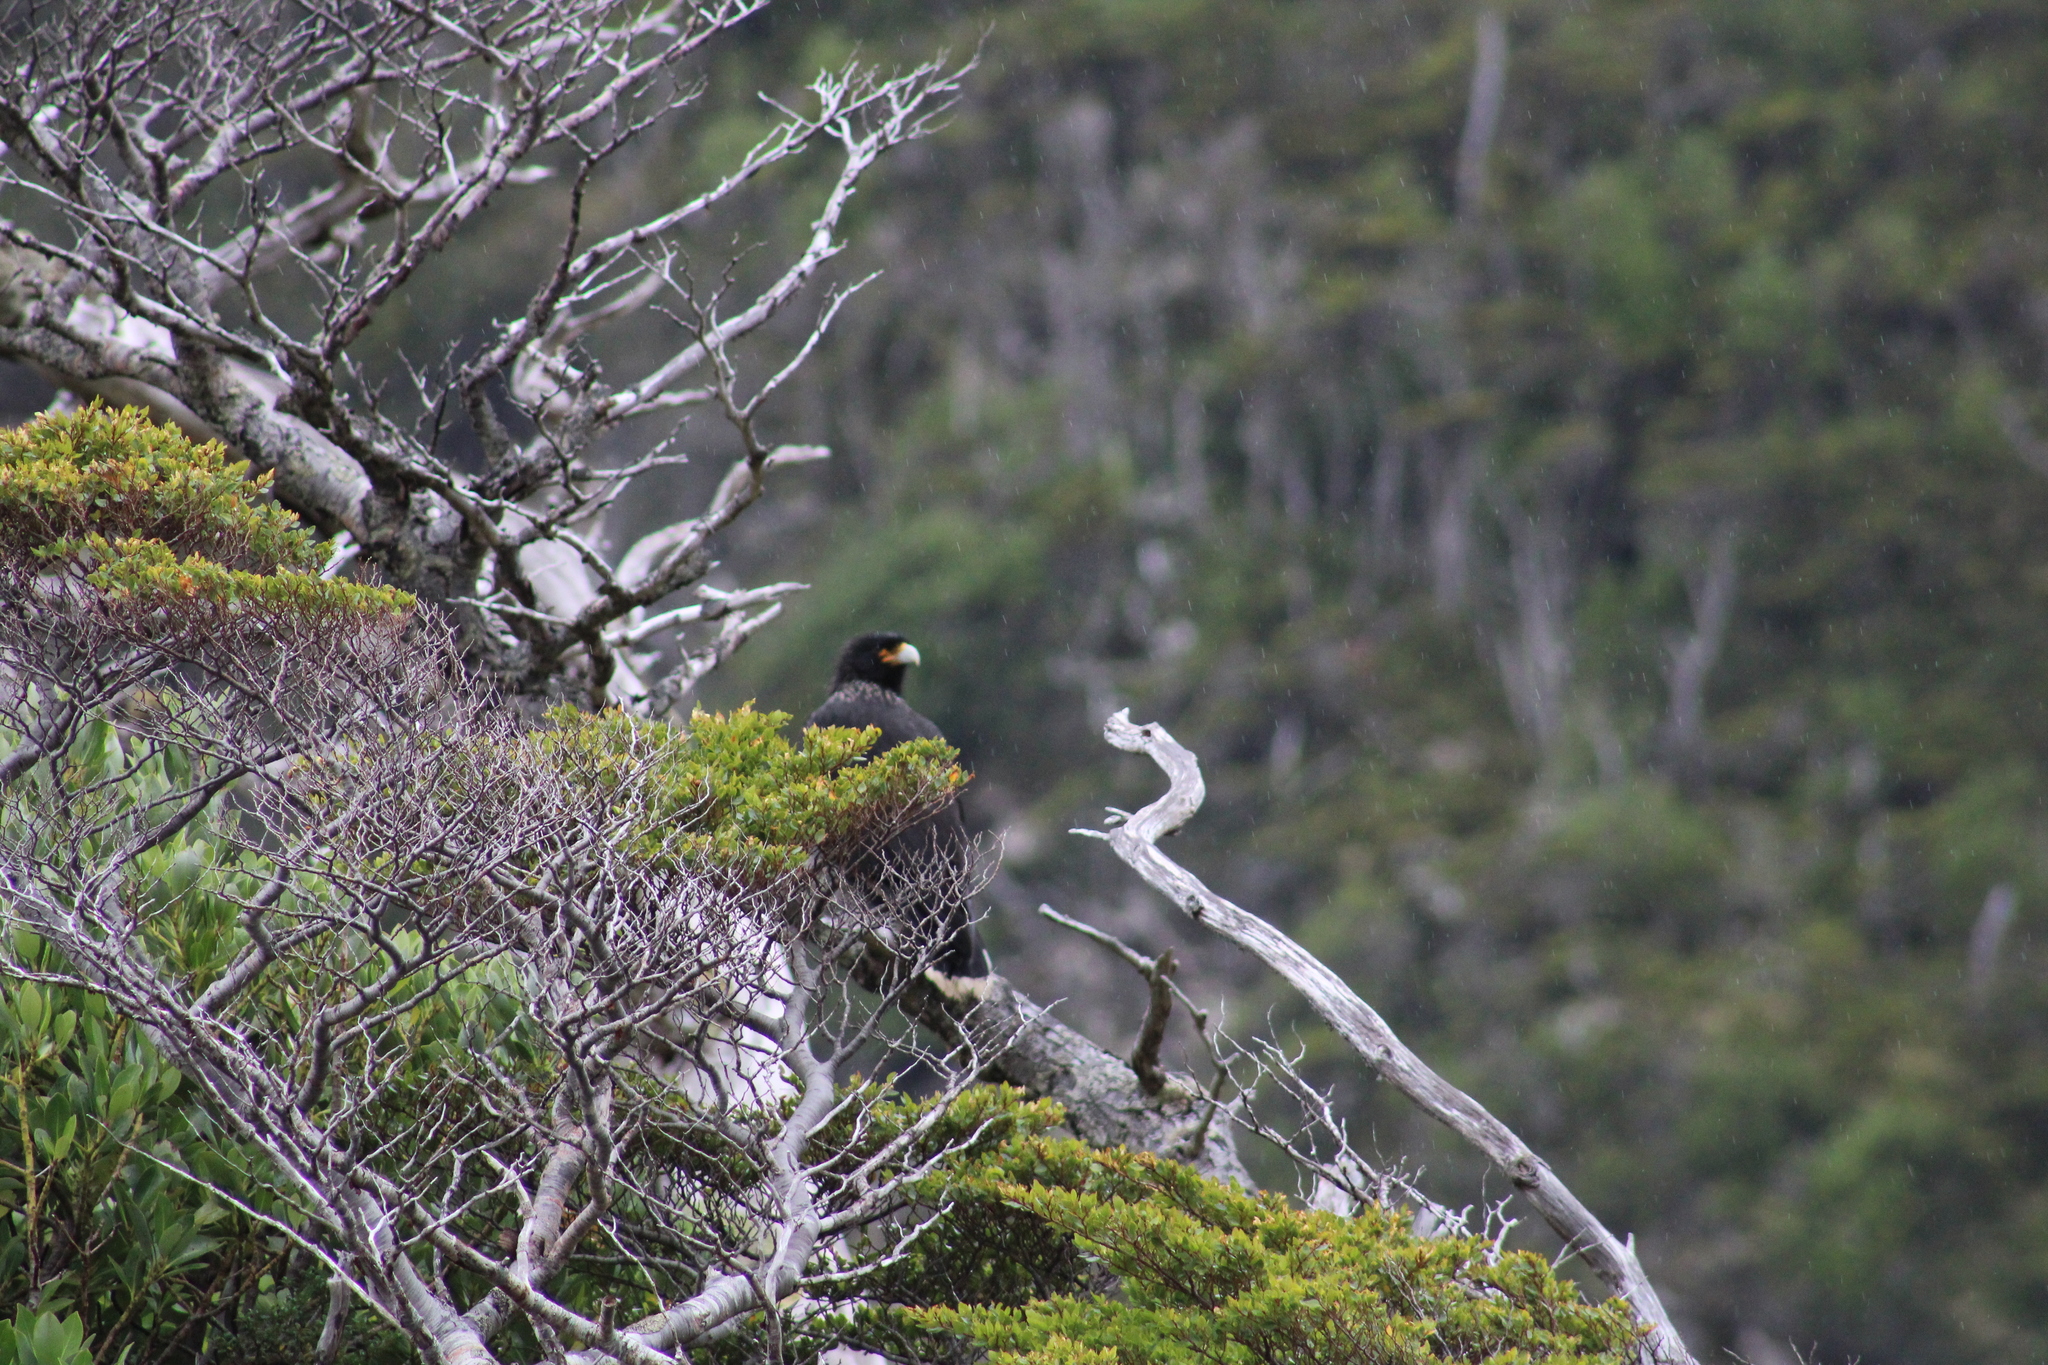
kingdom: Animalia
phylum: Chordata
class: Aves
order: Falconiformes
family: Falconidae
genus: Daptrius
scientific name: Daptrius
